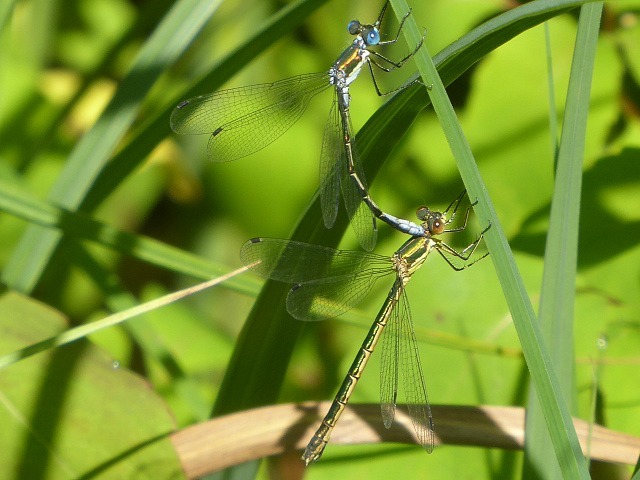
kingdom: Animalia
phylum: Arthropoda
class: Insecta
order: Odonata
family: Lestidae
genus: Lestes
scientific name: Lestes dryas
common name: Scarce emerald damselfly
